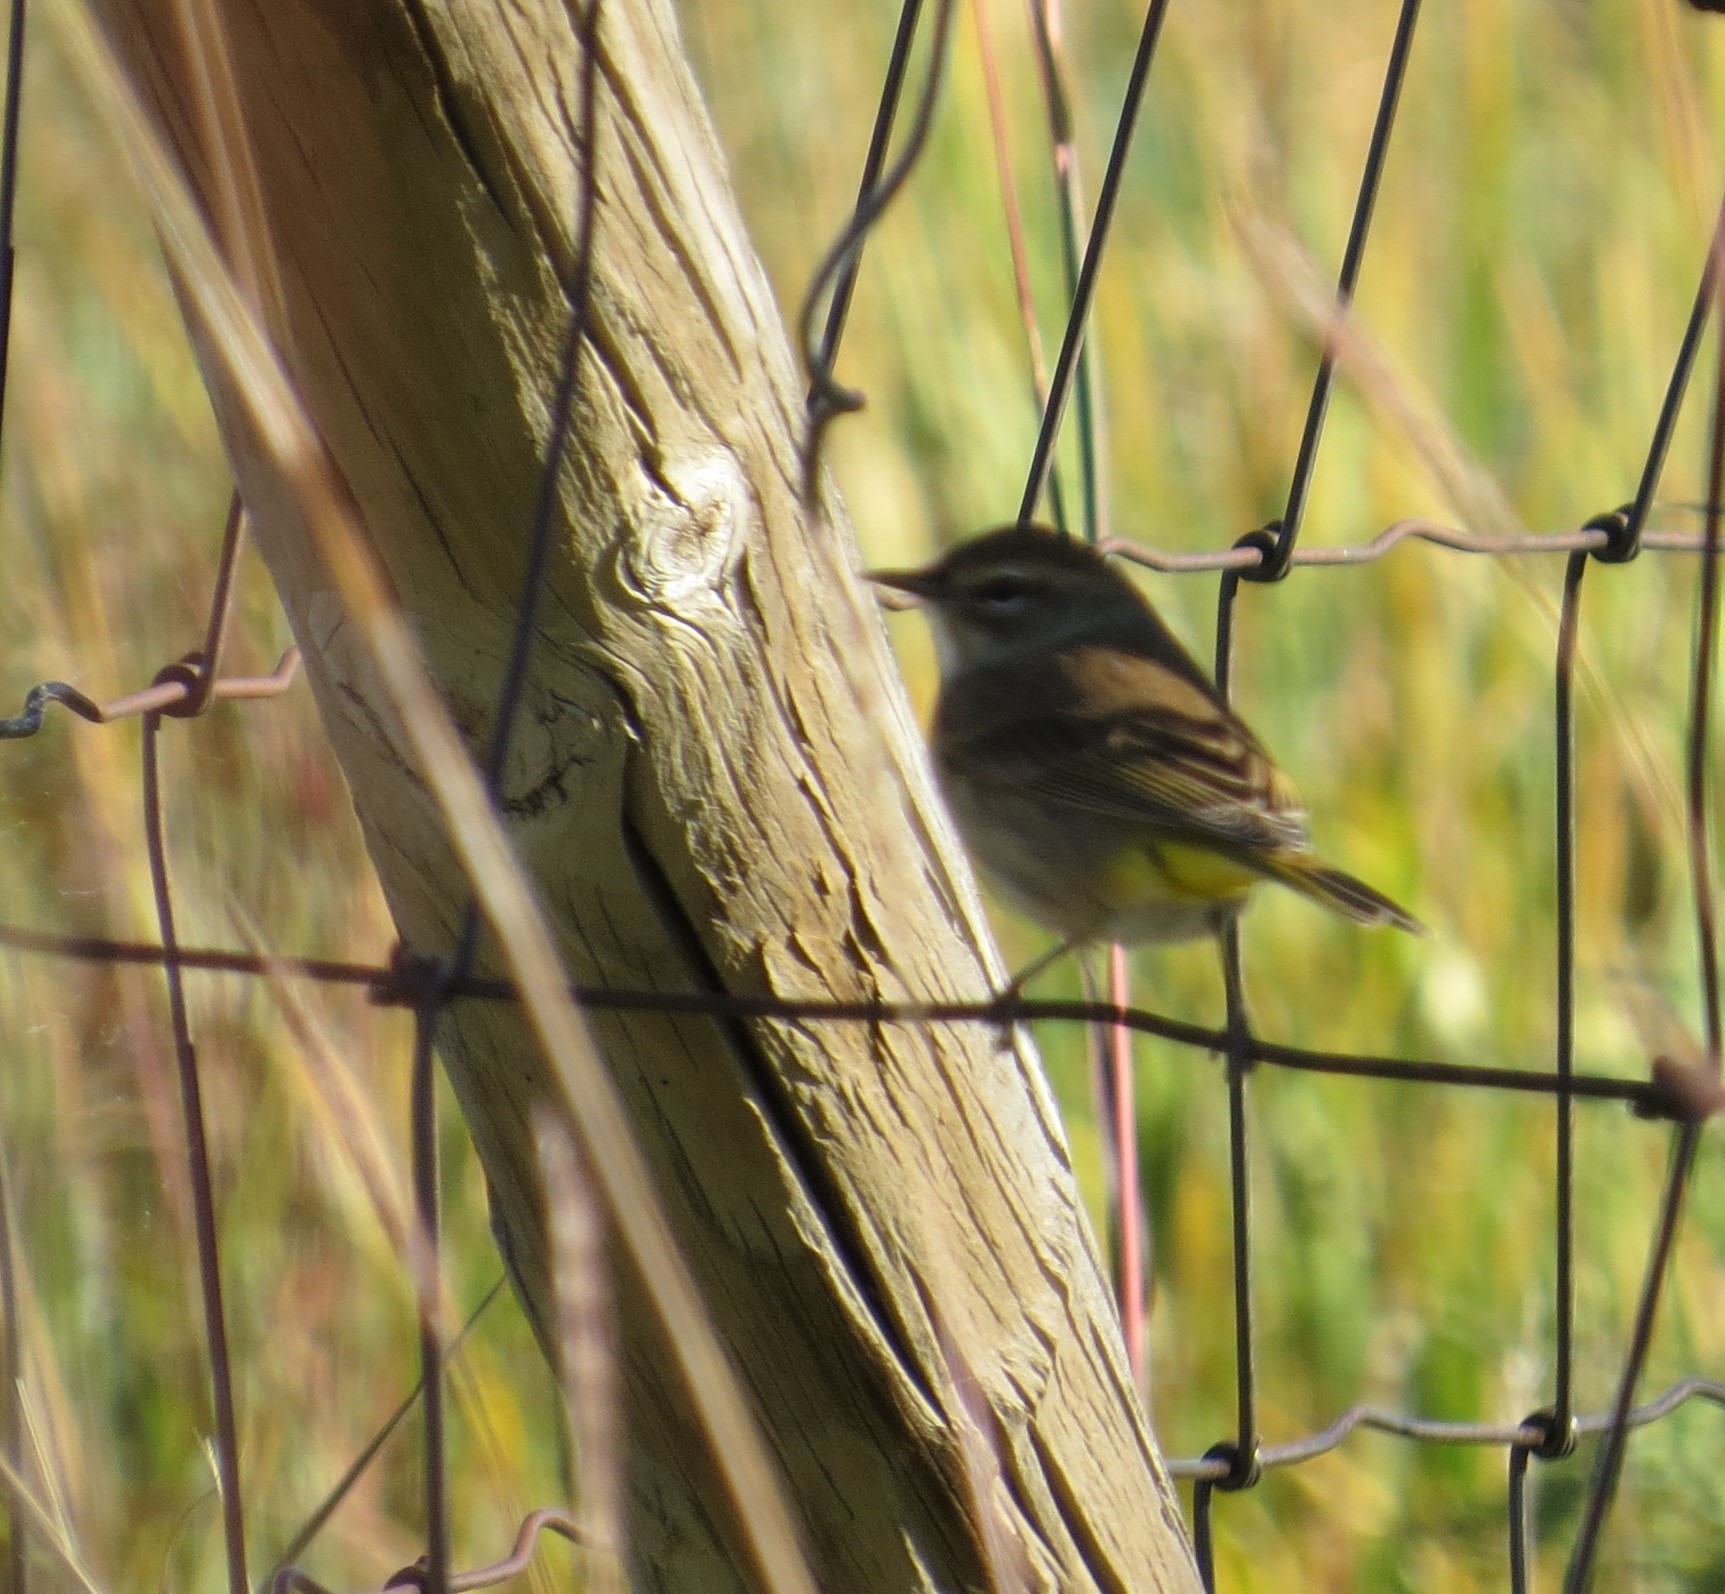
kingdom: Animalia
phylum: Chordata
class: Aves
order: Passeriformes
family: Parulidae
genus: Setophaga
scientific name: Setophaga palmarum
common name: Palm warbler
